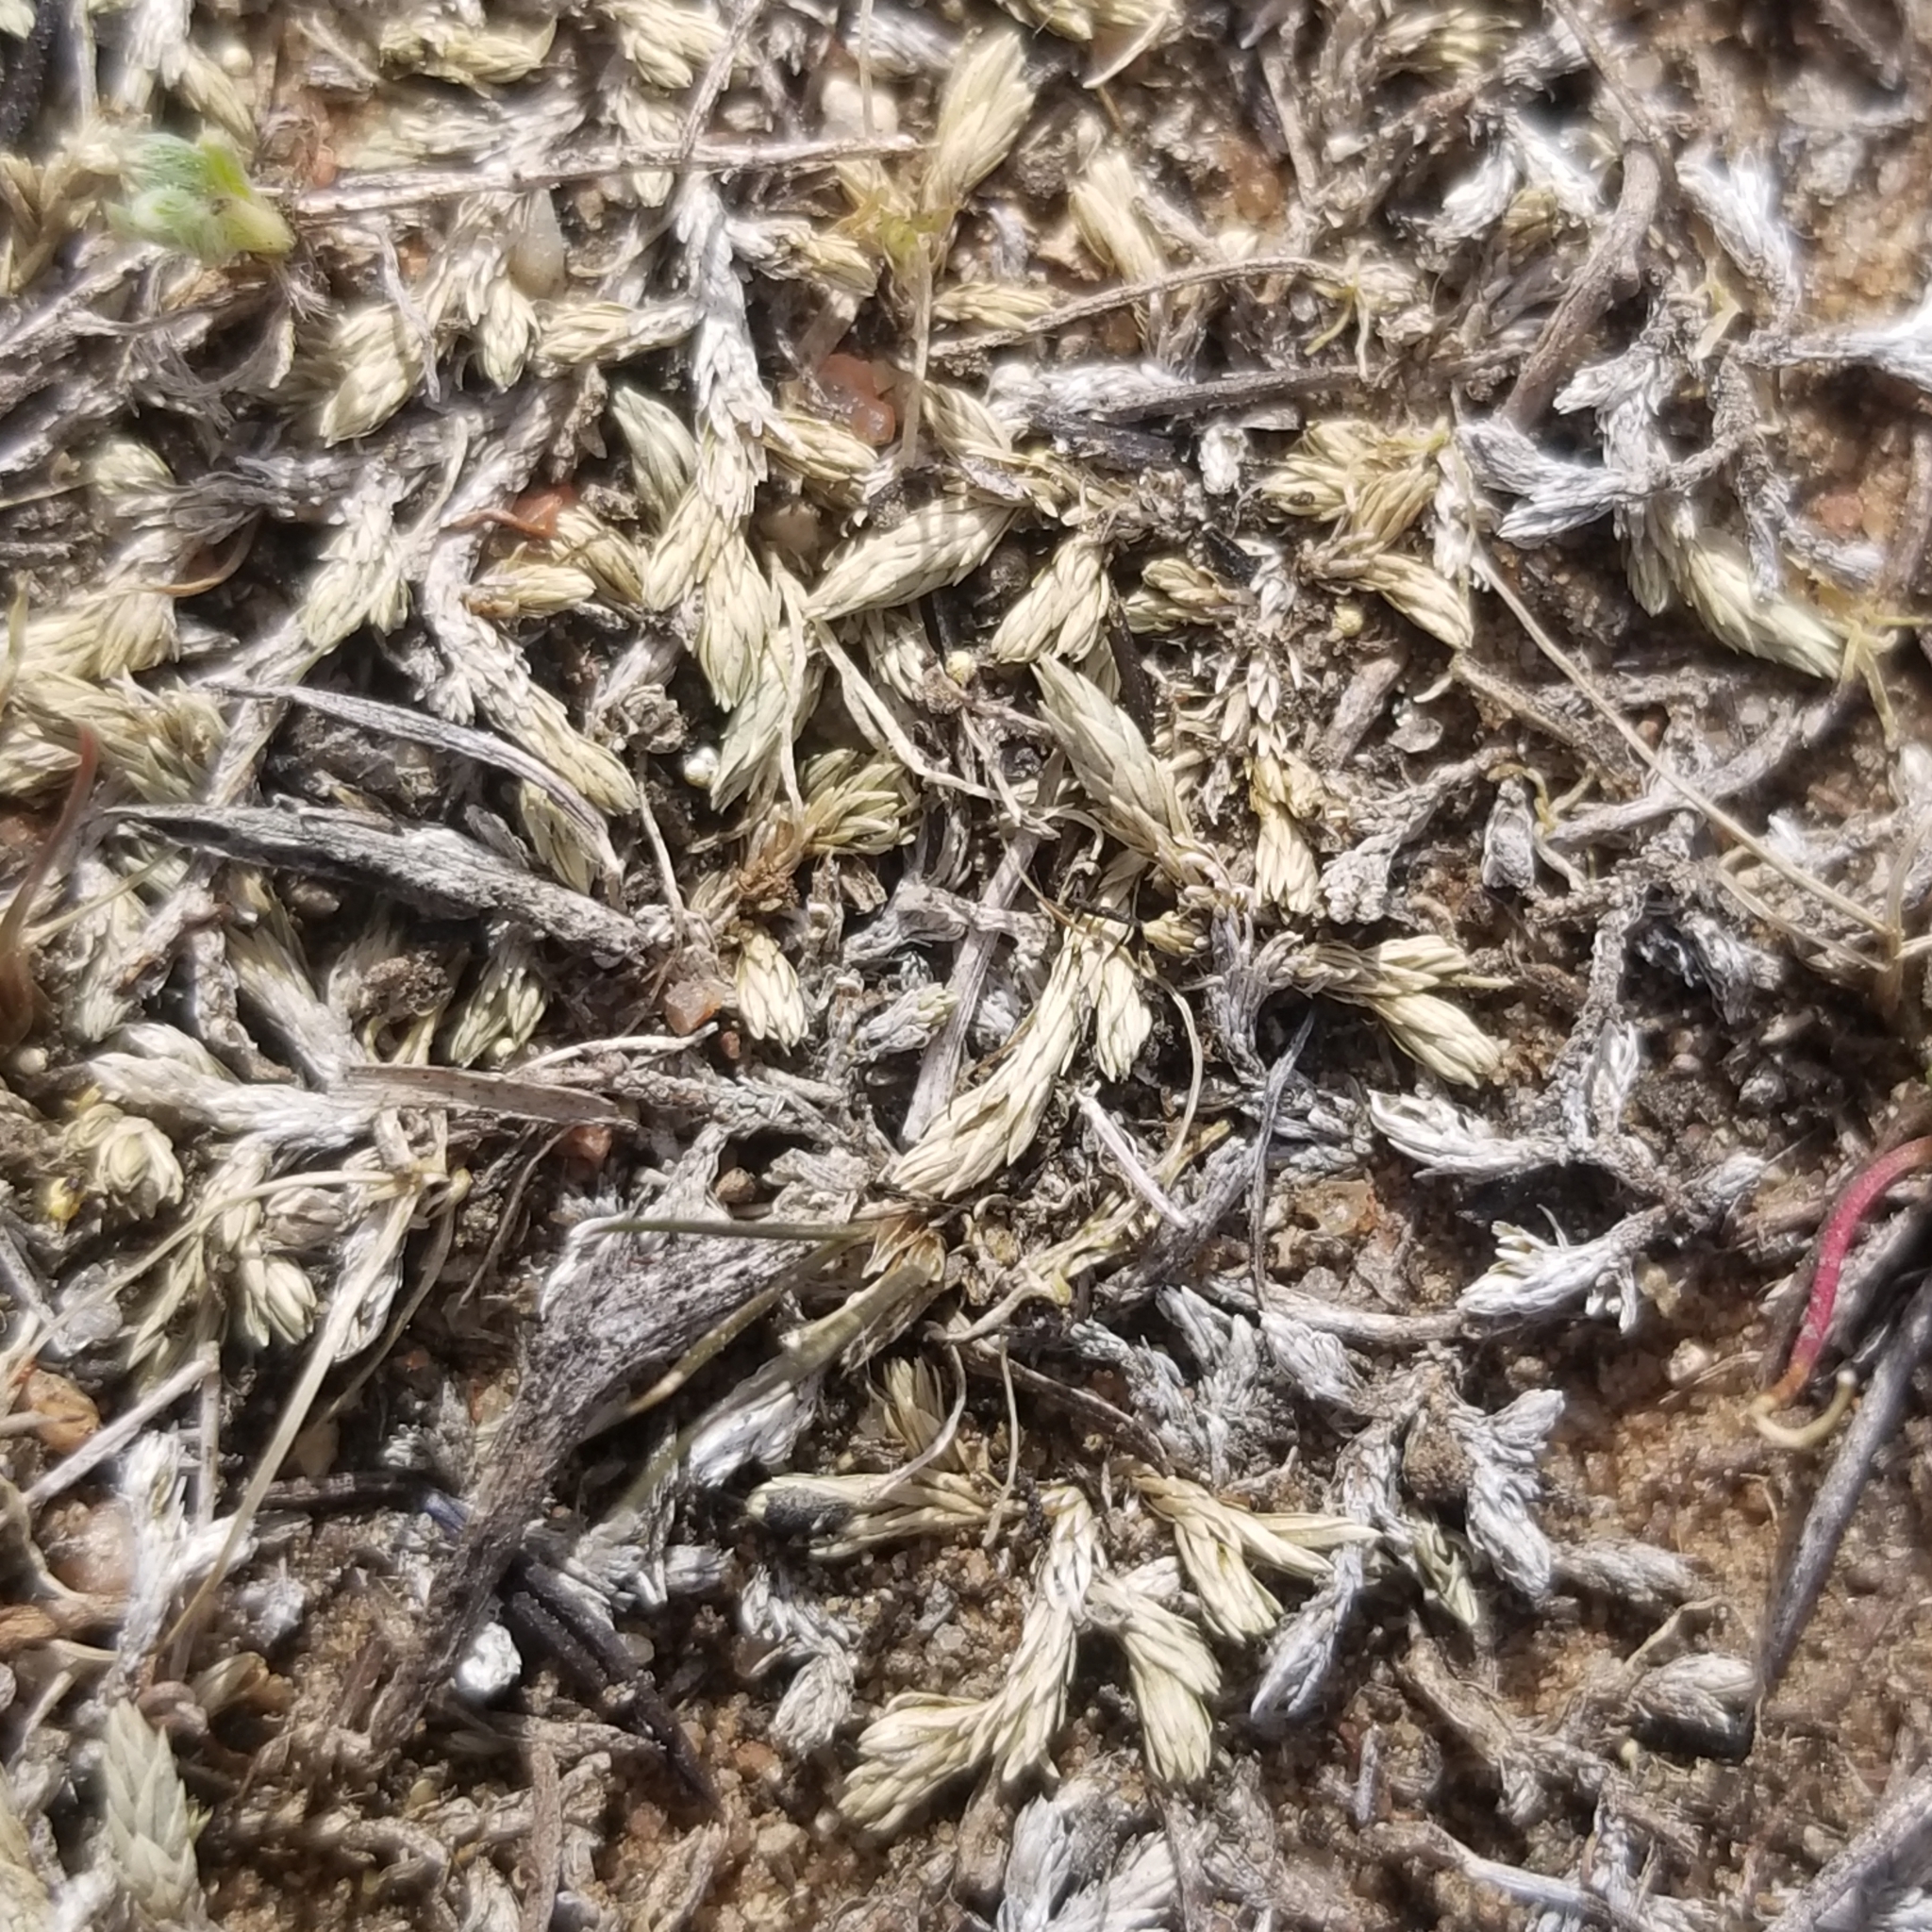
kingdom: Plantae
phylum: Tracheophyta
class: Lycopodiopsida
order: Selaginellales
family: Selaginellaceae
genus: Selaginella
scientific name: Selaginella cinerascens
